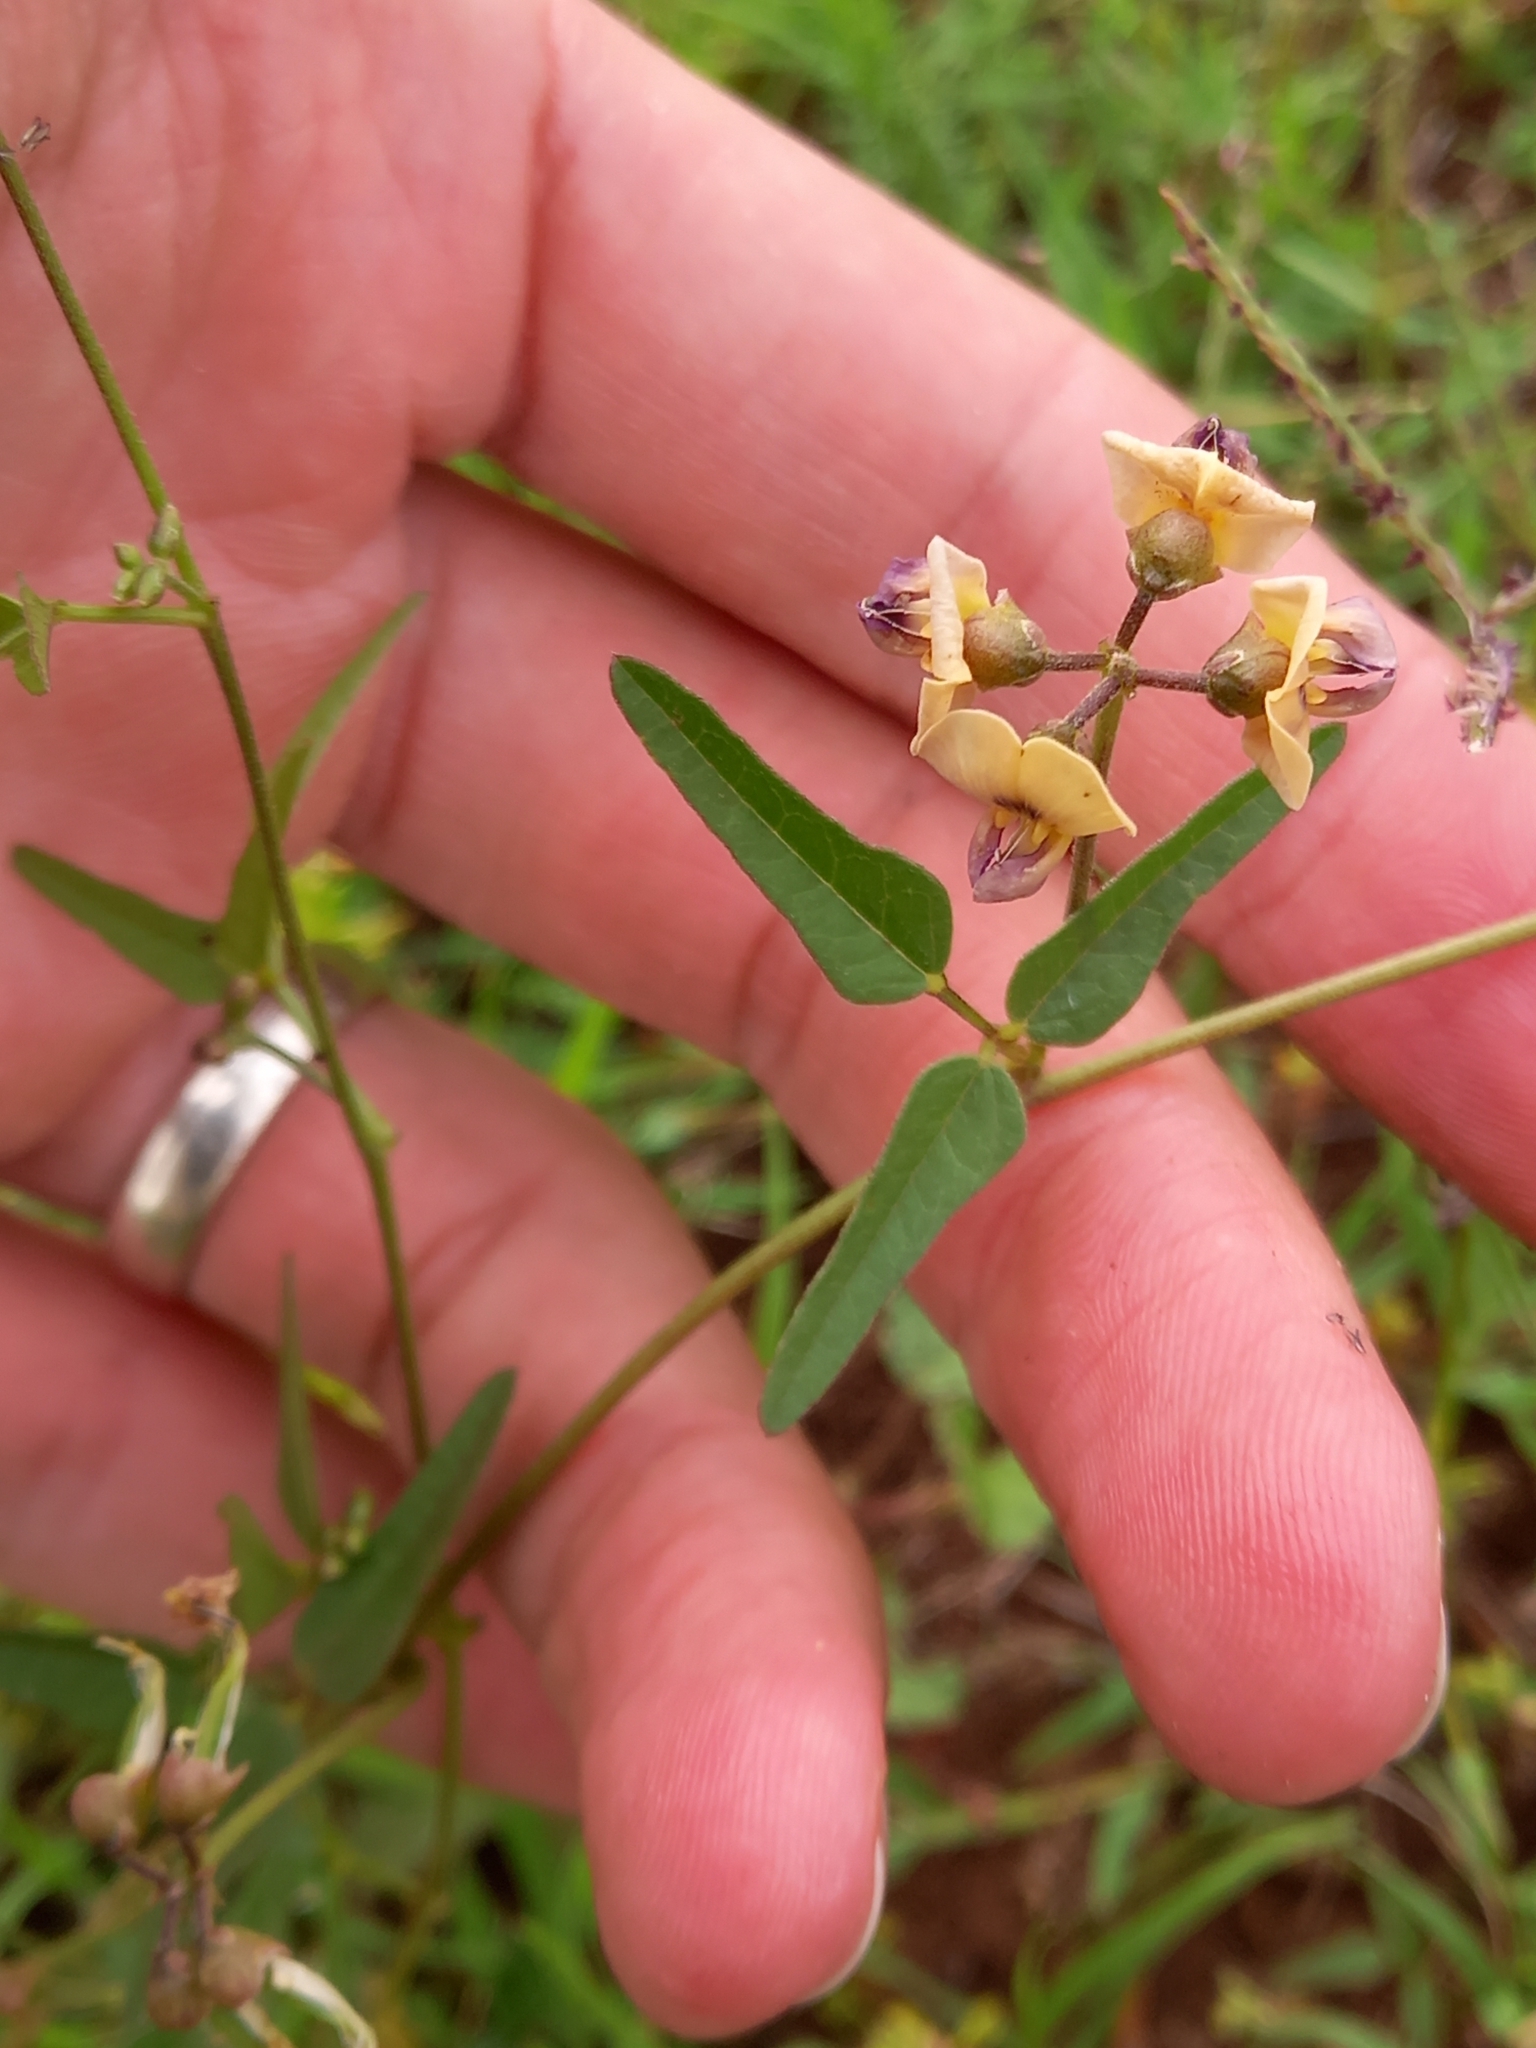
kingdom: Plantae
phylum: Tracheophyta
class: Magnoliopsida
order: Fabales
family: Fabaceae
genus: Dolichos
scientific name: Dolichos hastiformis
